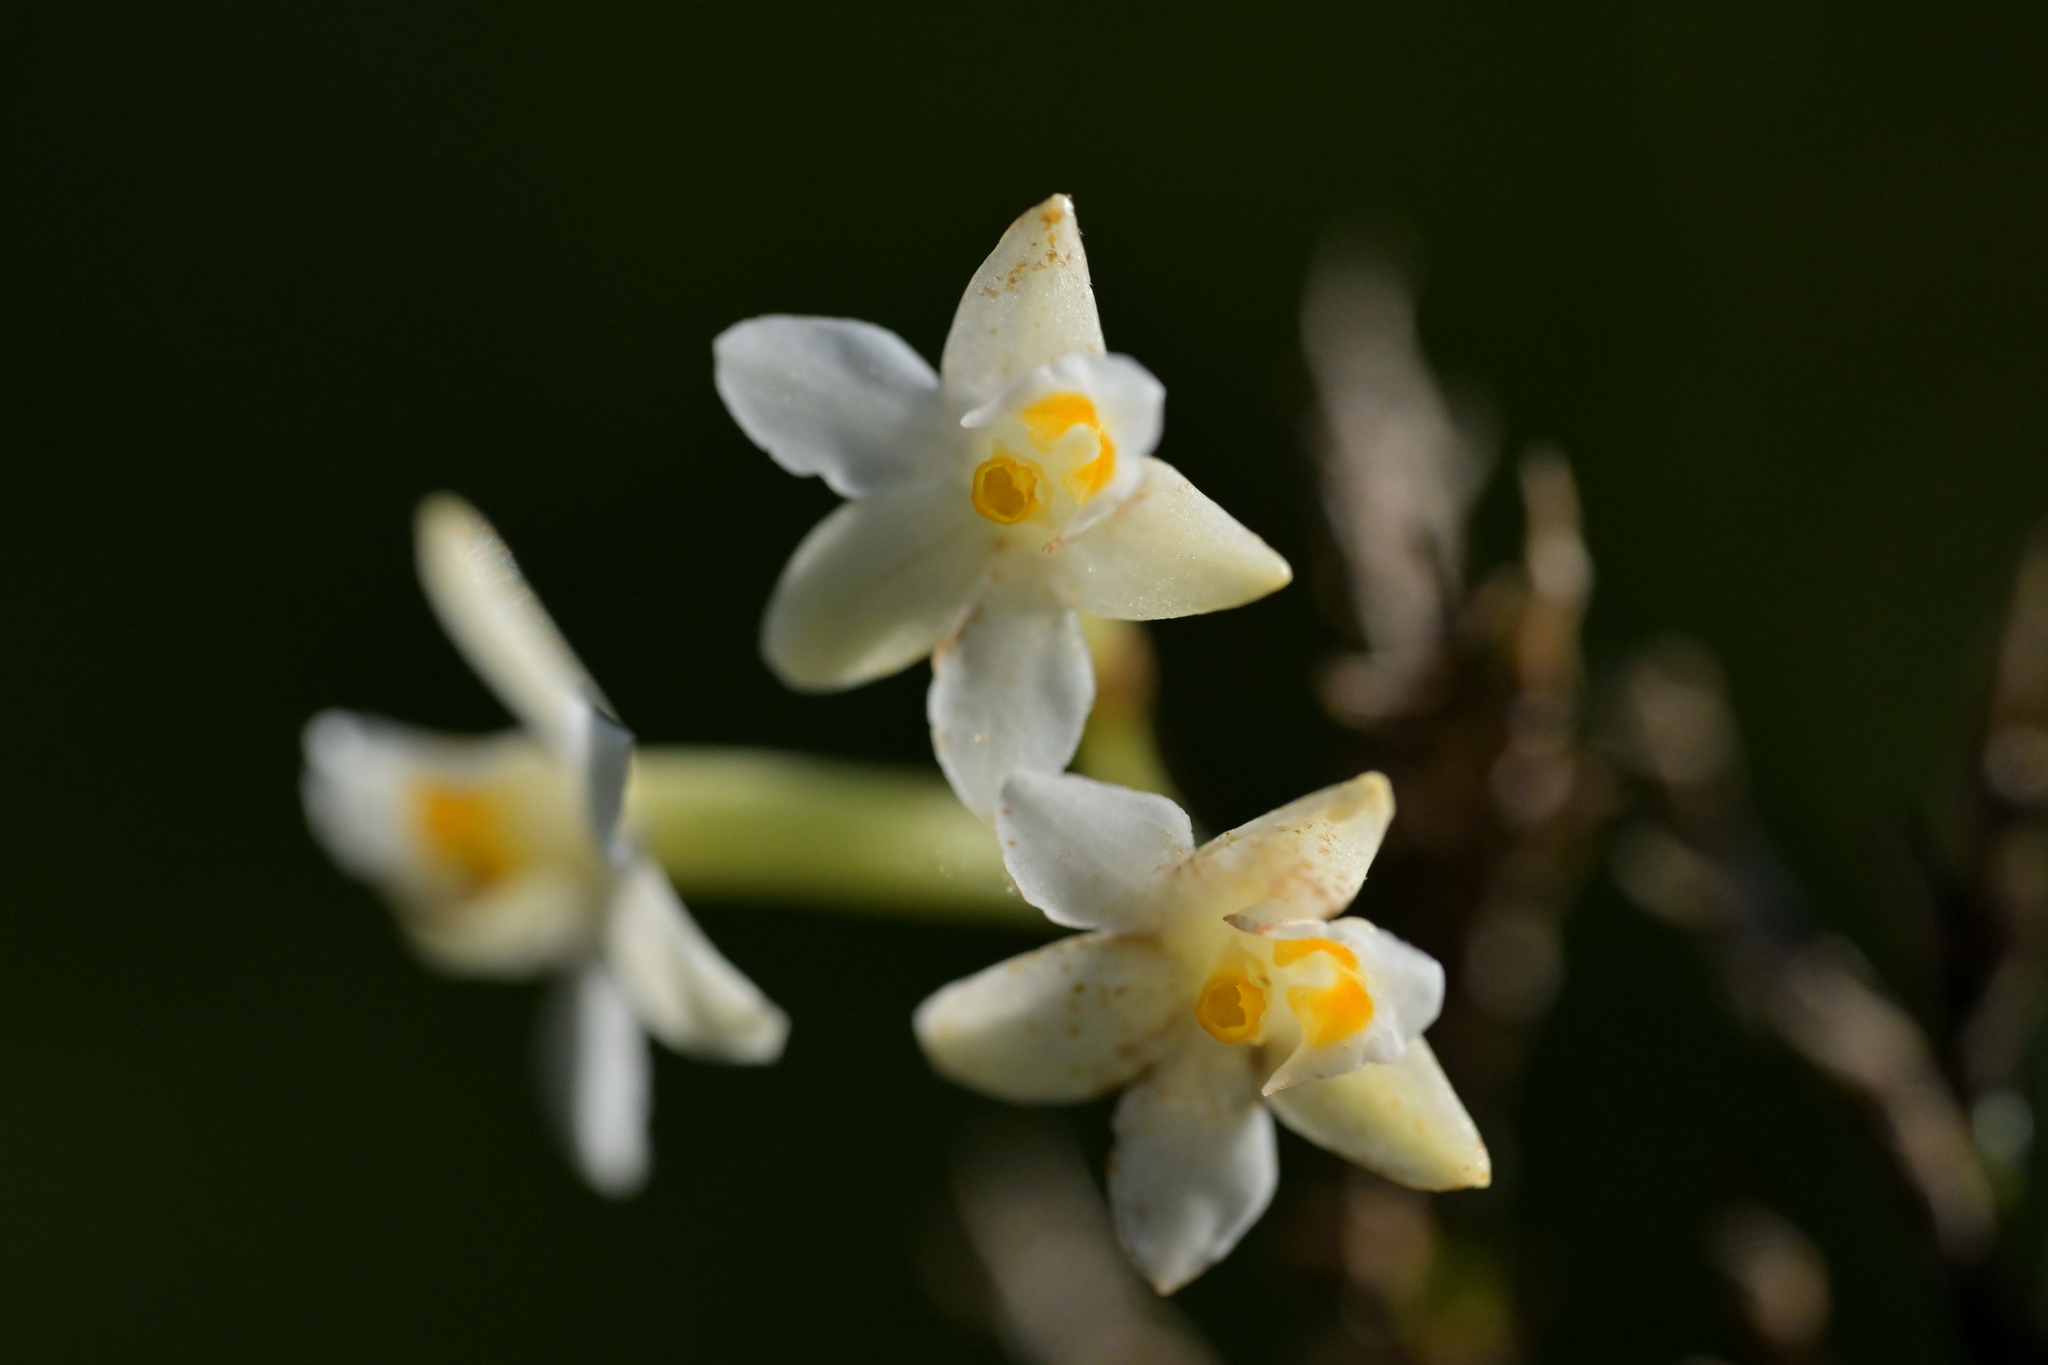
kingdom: Plantae
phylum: Tracheophyta
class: Liliopsida
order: Asparagales
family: Orchidaceae
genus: Earina
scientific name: Earina autumnalis
